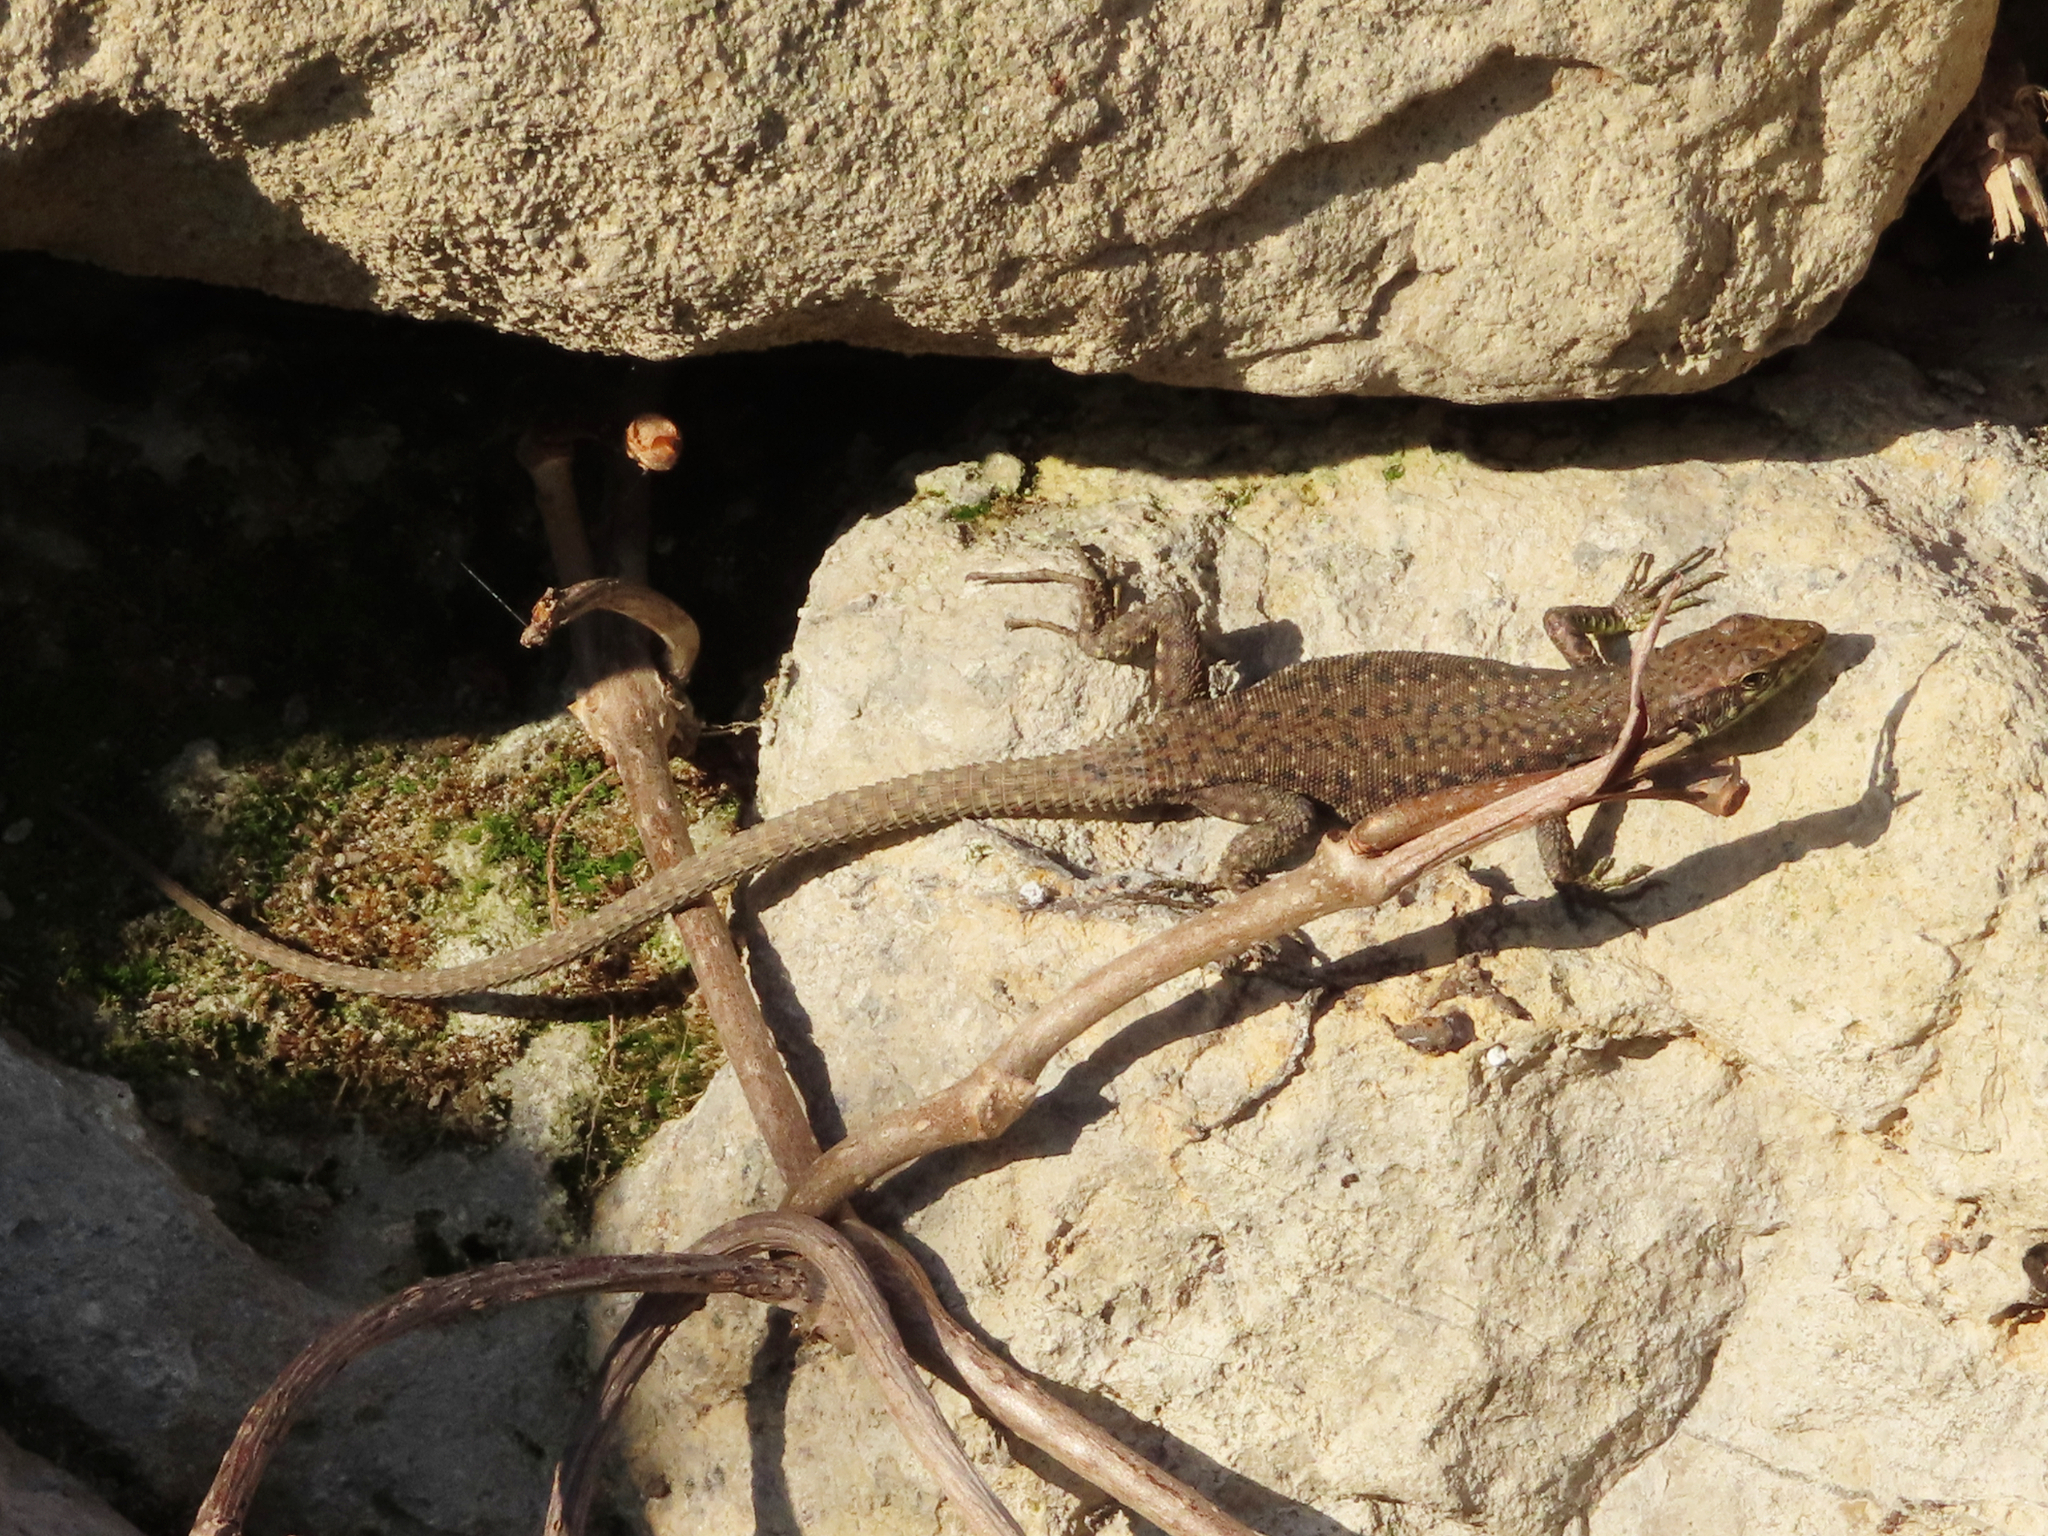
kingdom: Animalia
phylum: Chordata
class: Squamata
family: Lacertidae
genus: Darevskia
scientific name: Darevskia rudis
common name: Spiny-tailed lizard
